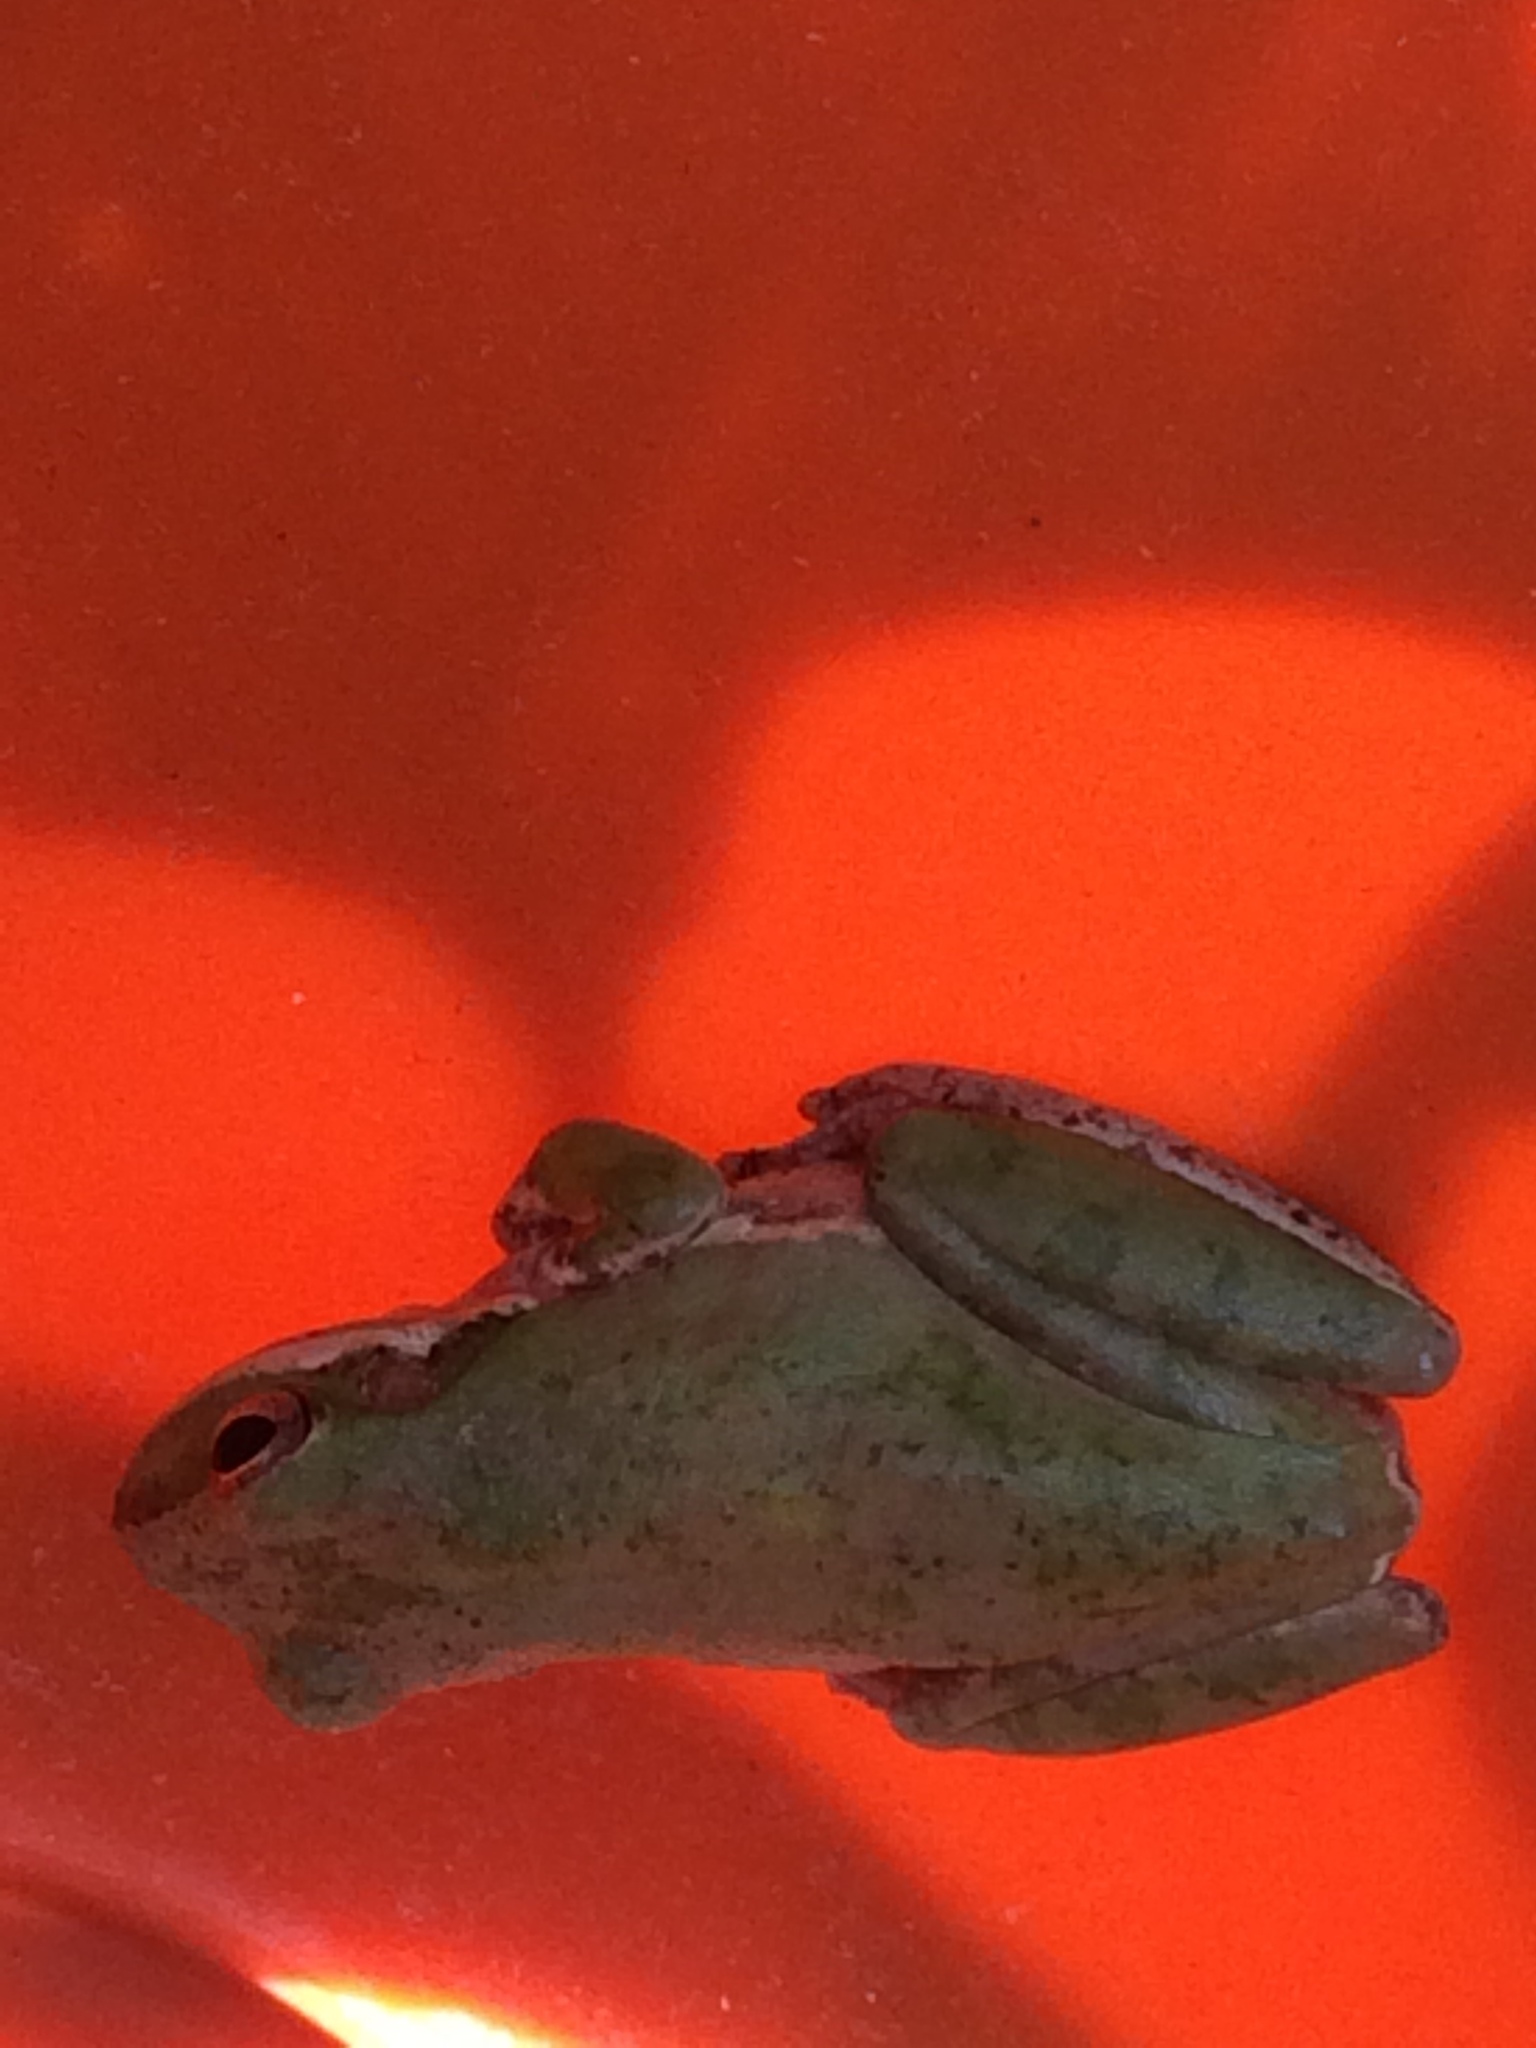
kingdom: Animalia
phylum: Chordata
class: Amphibia
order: Anura
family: Hylidae
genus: Dryophytes
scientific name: Dryophytes squirellus
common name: Squirrel treefrog
